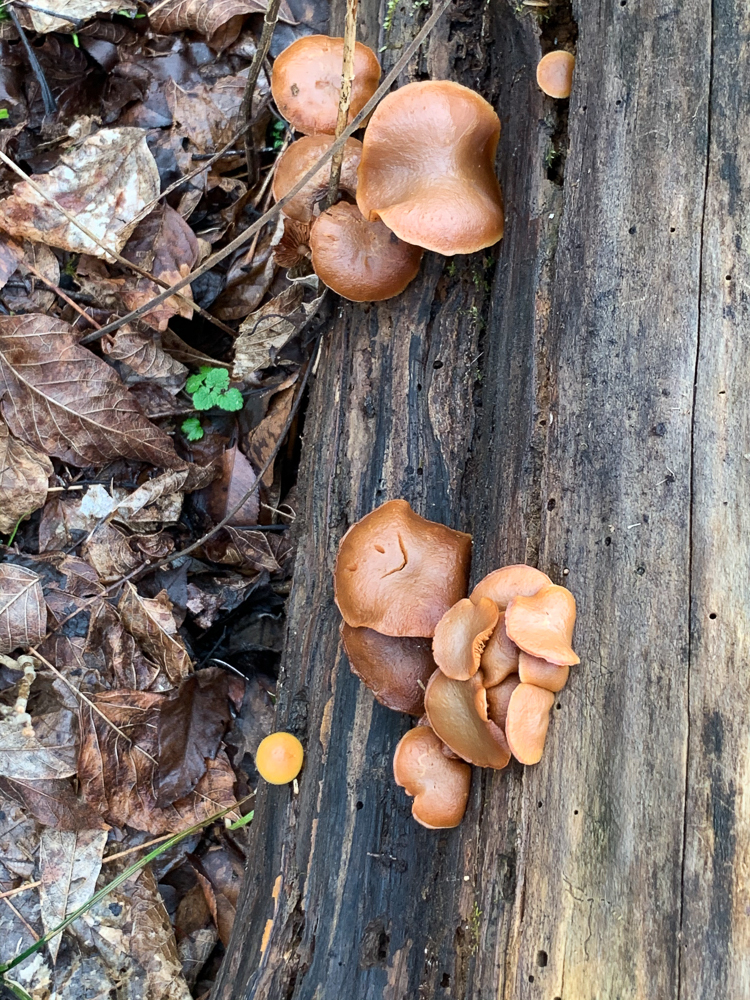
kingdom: Fungi
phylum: Basidiomycota
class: Agaricomycetes
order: Agaricales
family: Hymenogastraceae
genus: Galerina
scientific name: Galerina marginata
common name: Funeral bell
